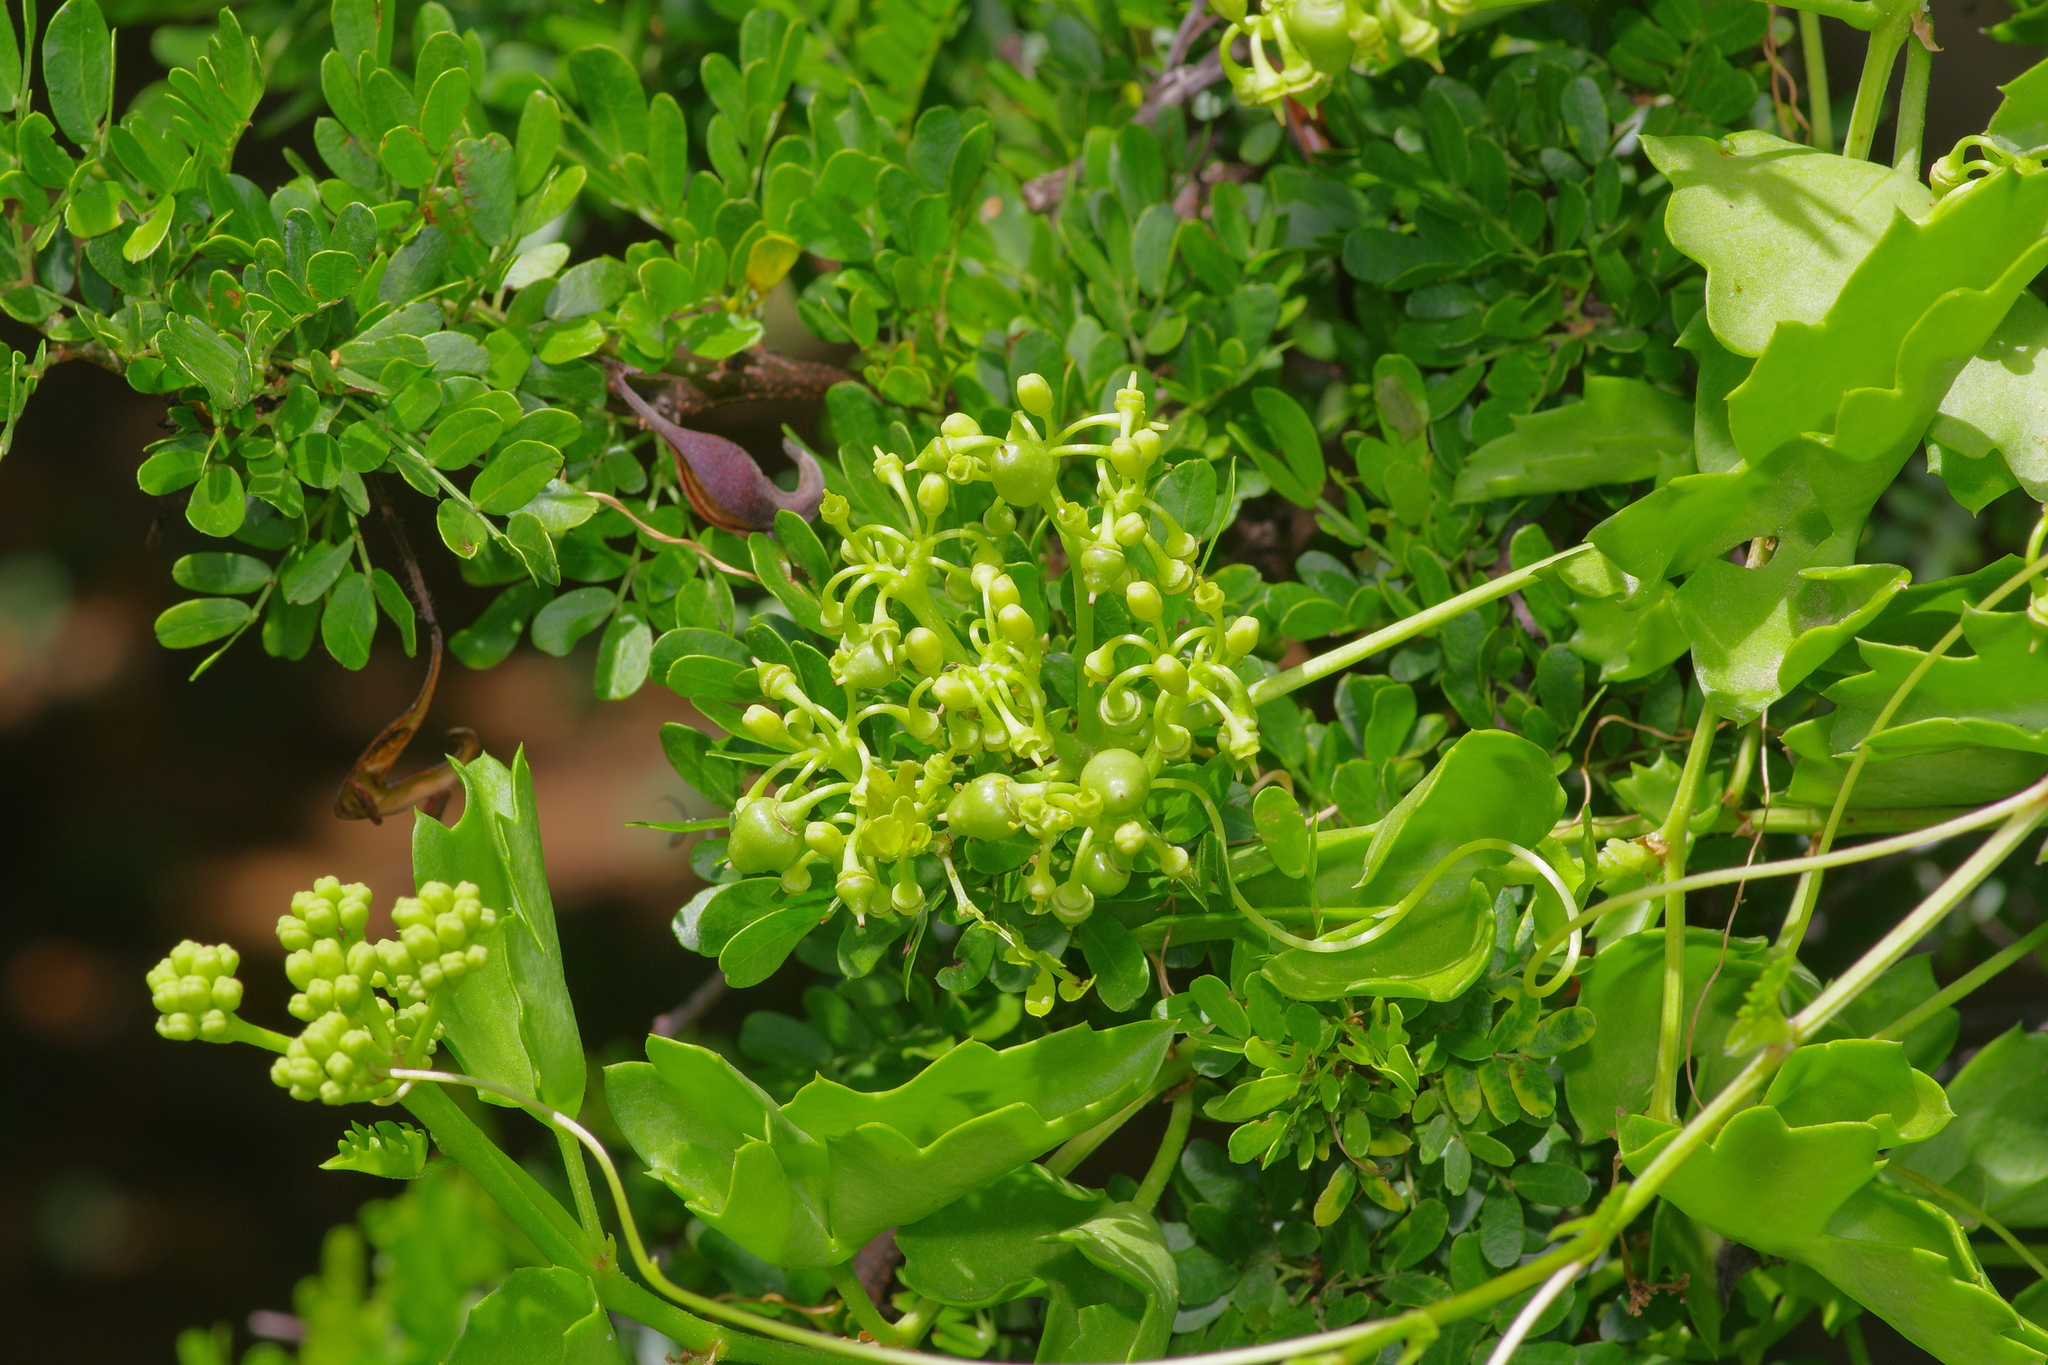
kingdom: Plantae
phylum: Tracheophyta
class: Magnoliopsida
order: Vitales
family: Vitaceae
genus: Cissus
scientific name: Cissus trifoliata
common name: Vine-sorrel
